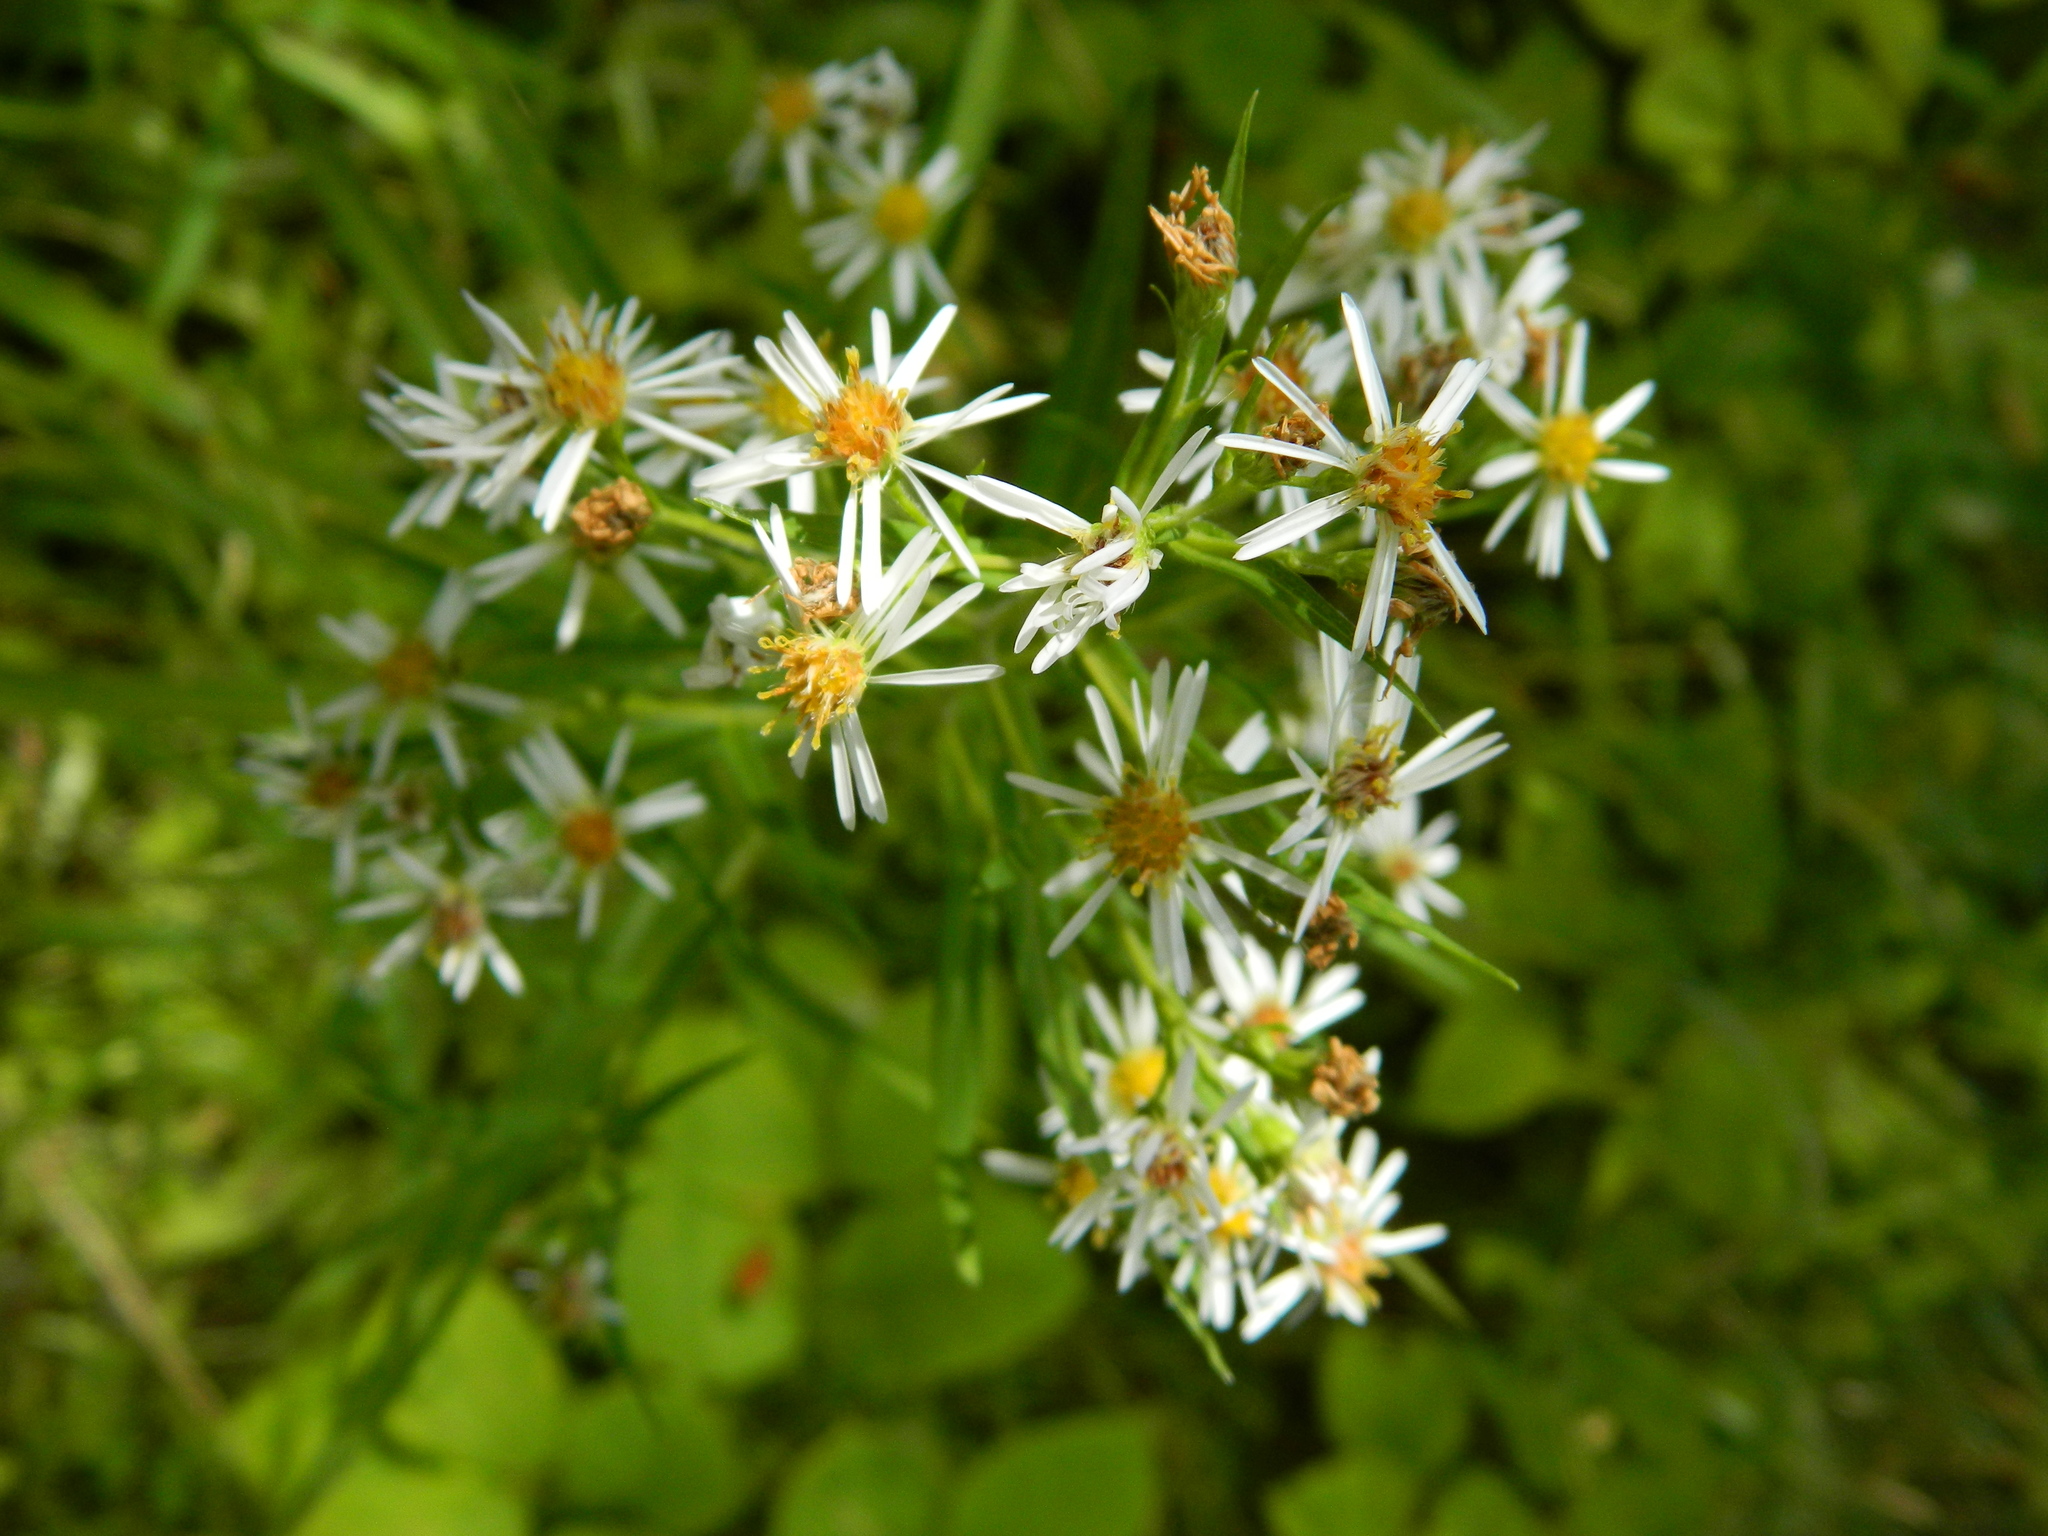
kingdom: Plantae
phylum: Tracheophyta
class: Magnoliopsida
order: Asterales
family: Asteraceae
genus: Symphyotrichum
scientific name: Symphyotrichum lanceolatum
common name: Panicled aster
